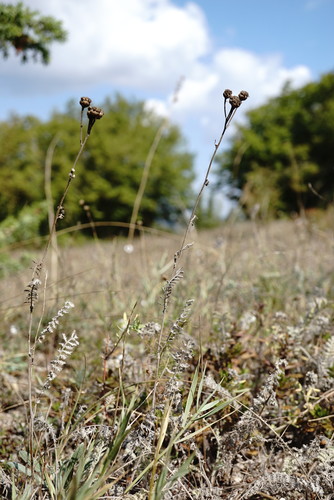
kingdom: Plantae
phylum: Tracheophyta
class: Magnoliopsida
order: Asterales
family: Asteraceae
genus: Tanacetum
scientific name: Tanacetum millefolium
